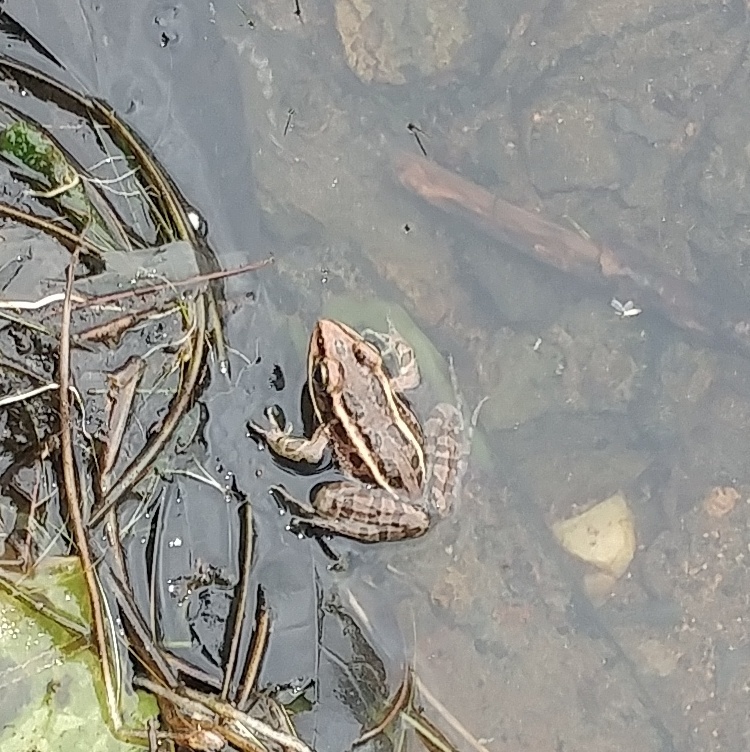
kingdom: Animalia
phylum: Chordata
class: Amphibia
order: Anura
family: Ranidae
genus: Lithobates
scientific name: Lithobates palustris
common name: Pickerel frog
